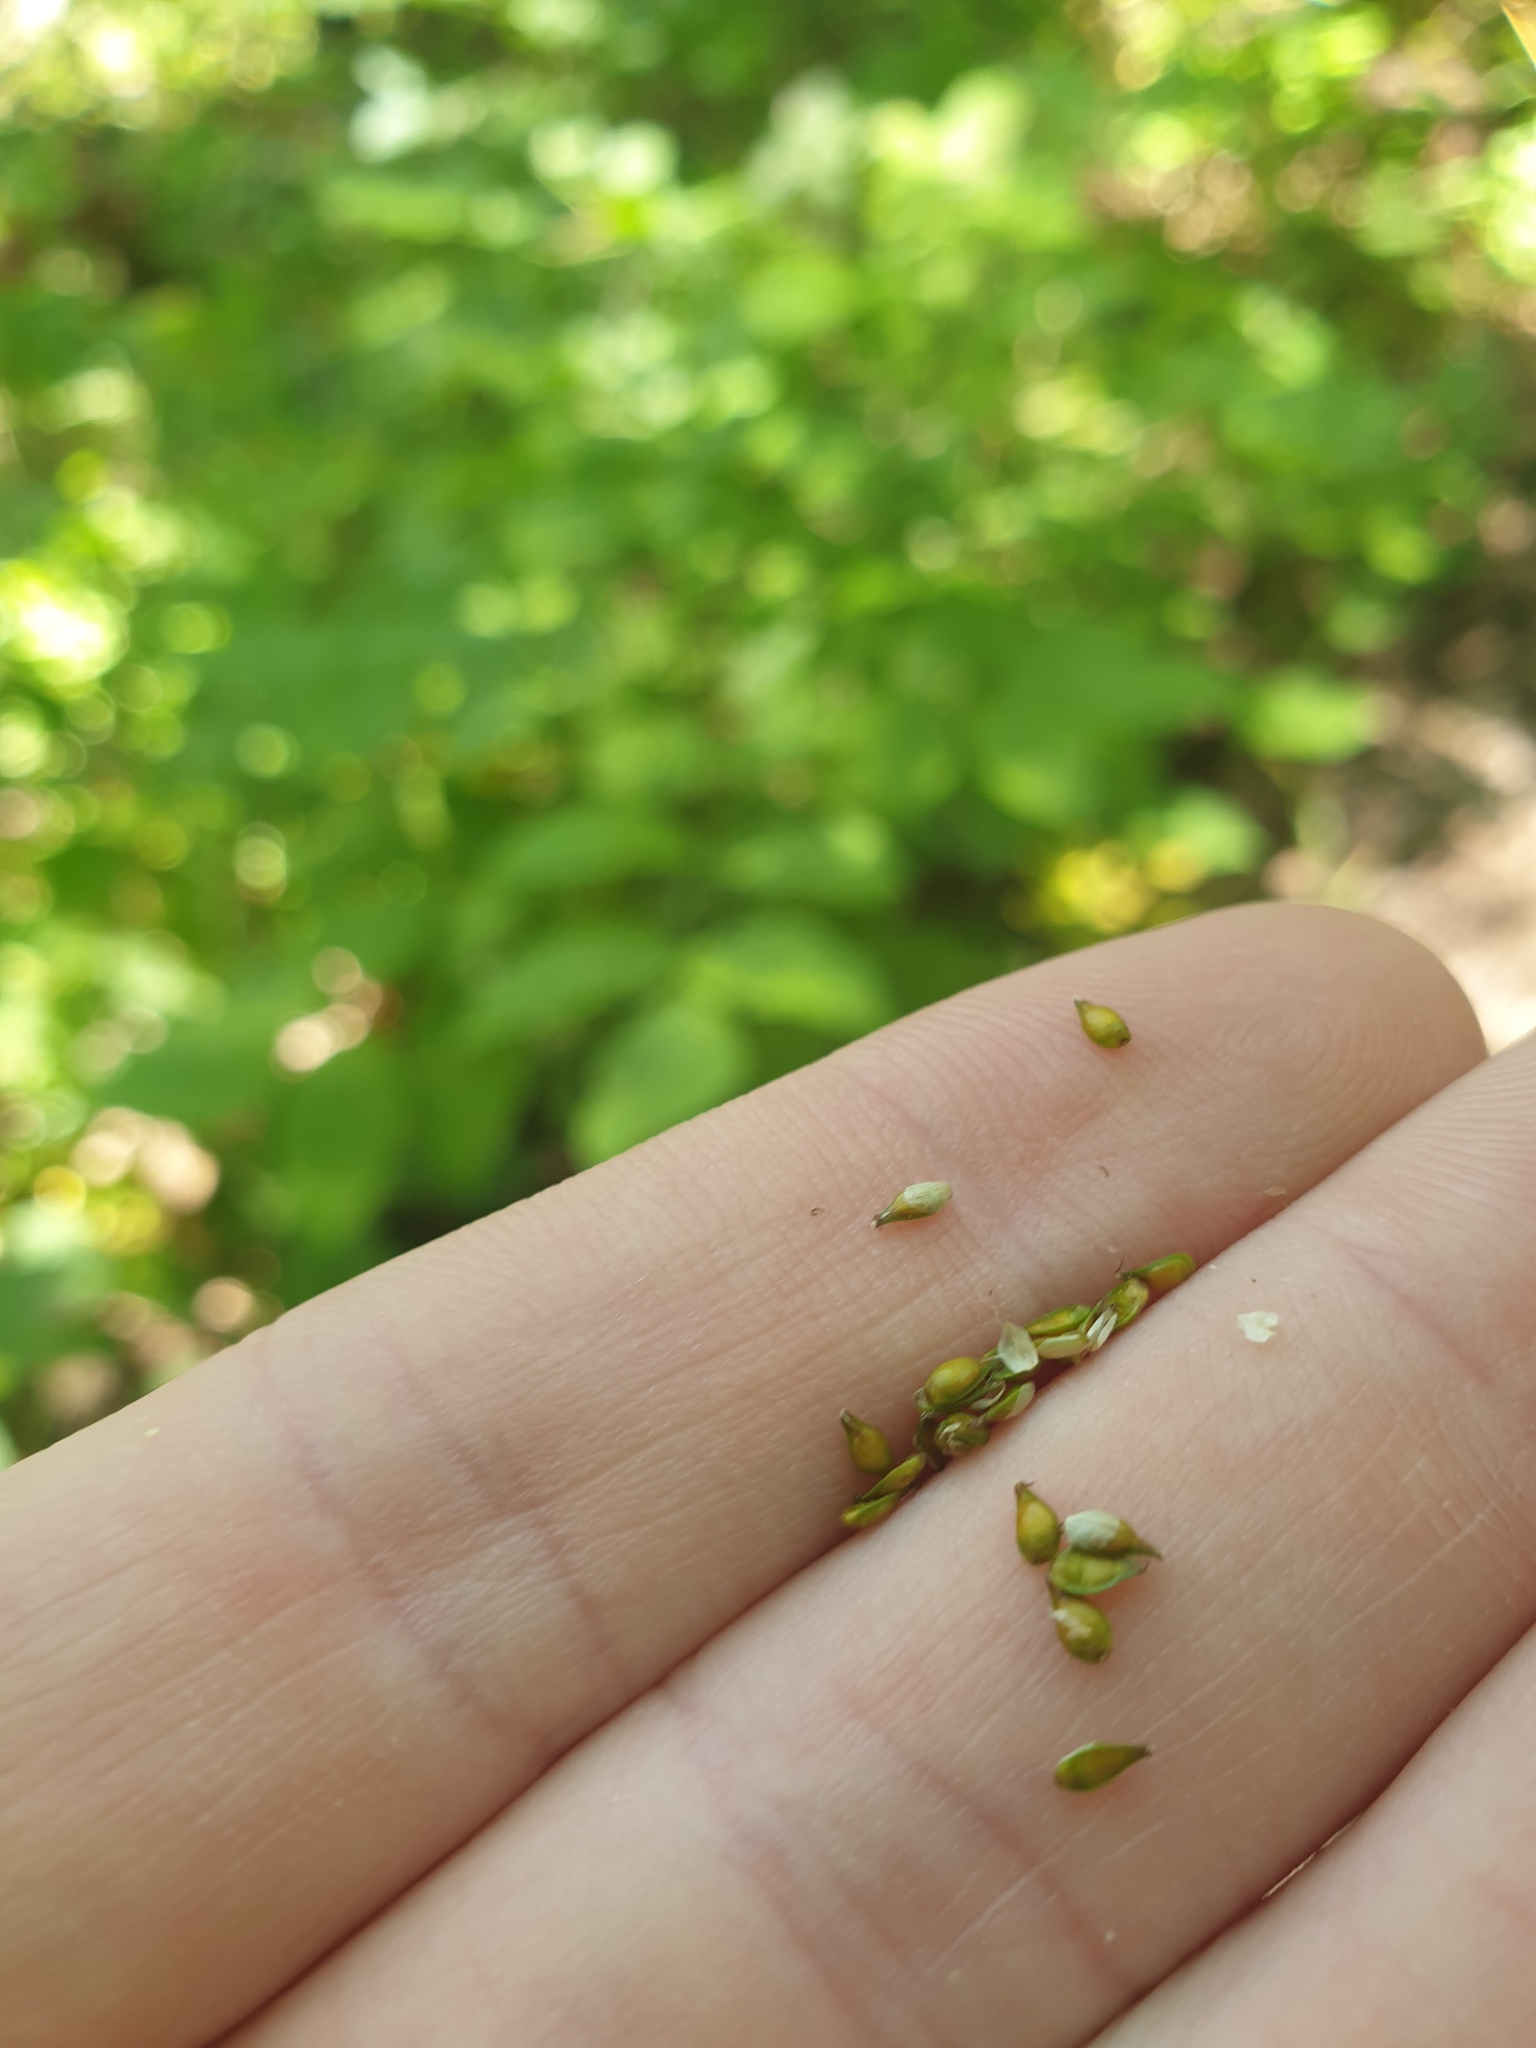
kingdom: Plantae
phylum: Tracheophyta
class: Liliopsida
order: Poales
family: Cyperaceae
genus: Carex
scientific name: Carex rosea
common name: Curly-styled wood sedge
